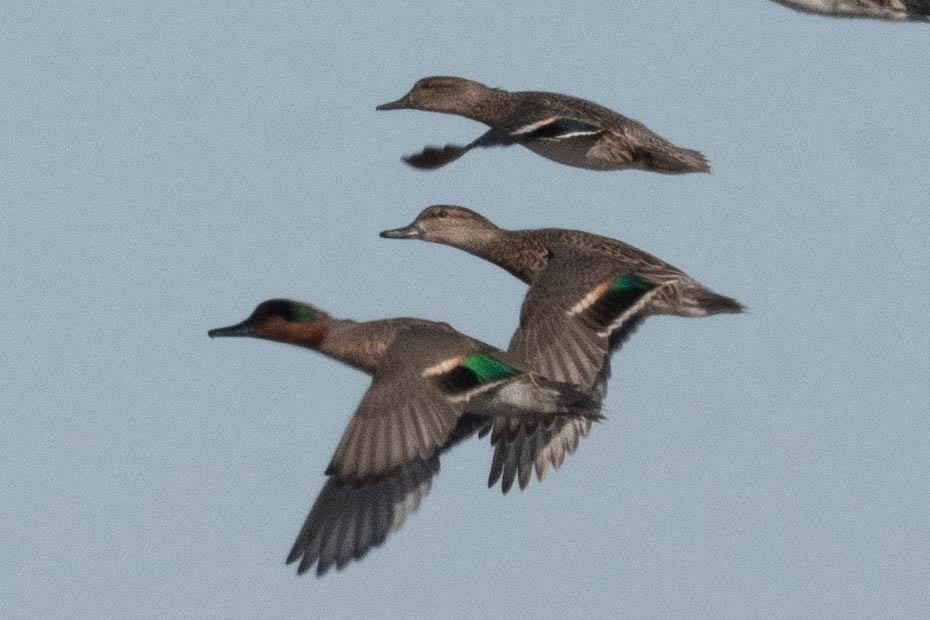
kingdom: Animalia
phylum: Chordata
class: Aves
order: Anseriformes
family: Anatidae
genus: Anas
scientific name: Anas crecca
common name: Eurasian teal
